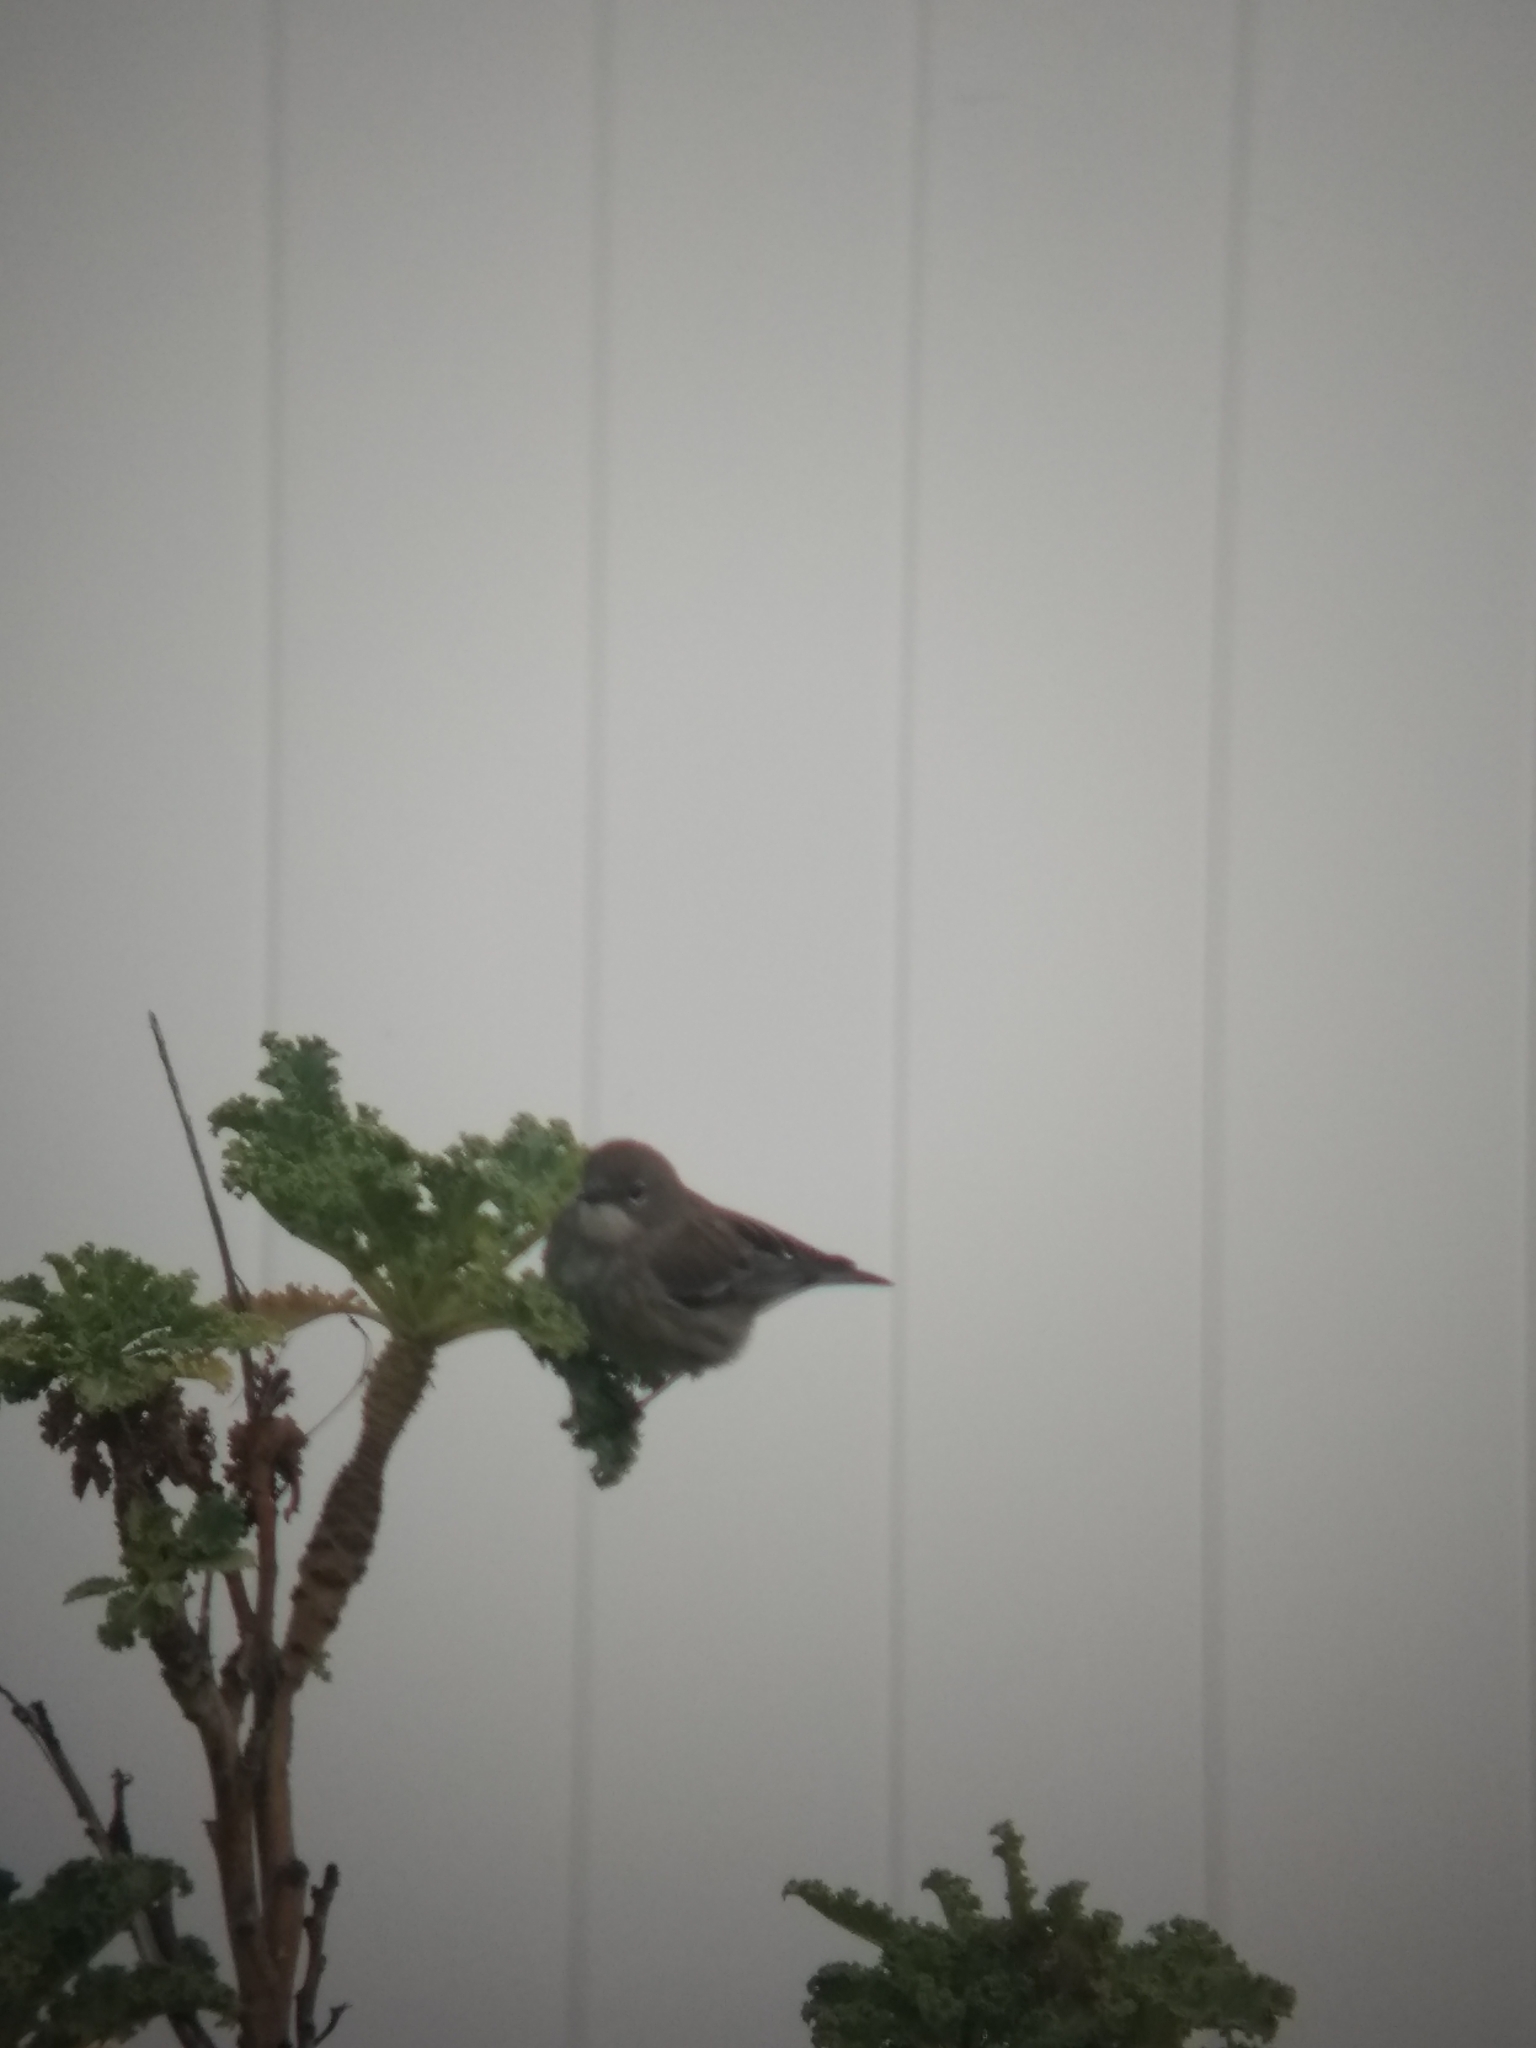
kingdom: Animalia
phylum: Chordata
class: Aves
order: Passeriformes
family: Parulidae
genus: Setophaga
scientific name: Setophaga coronata
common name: Myrtle warbler
